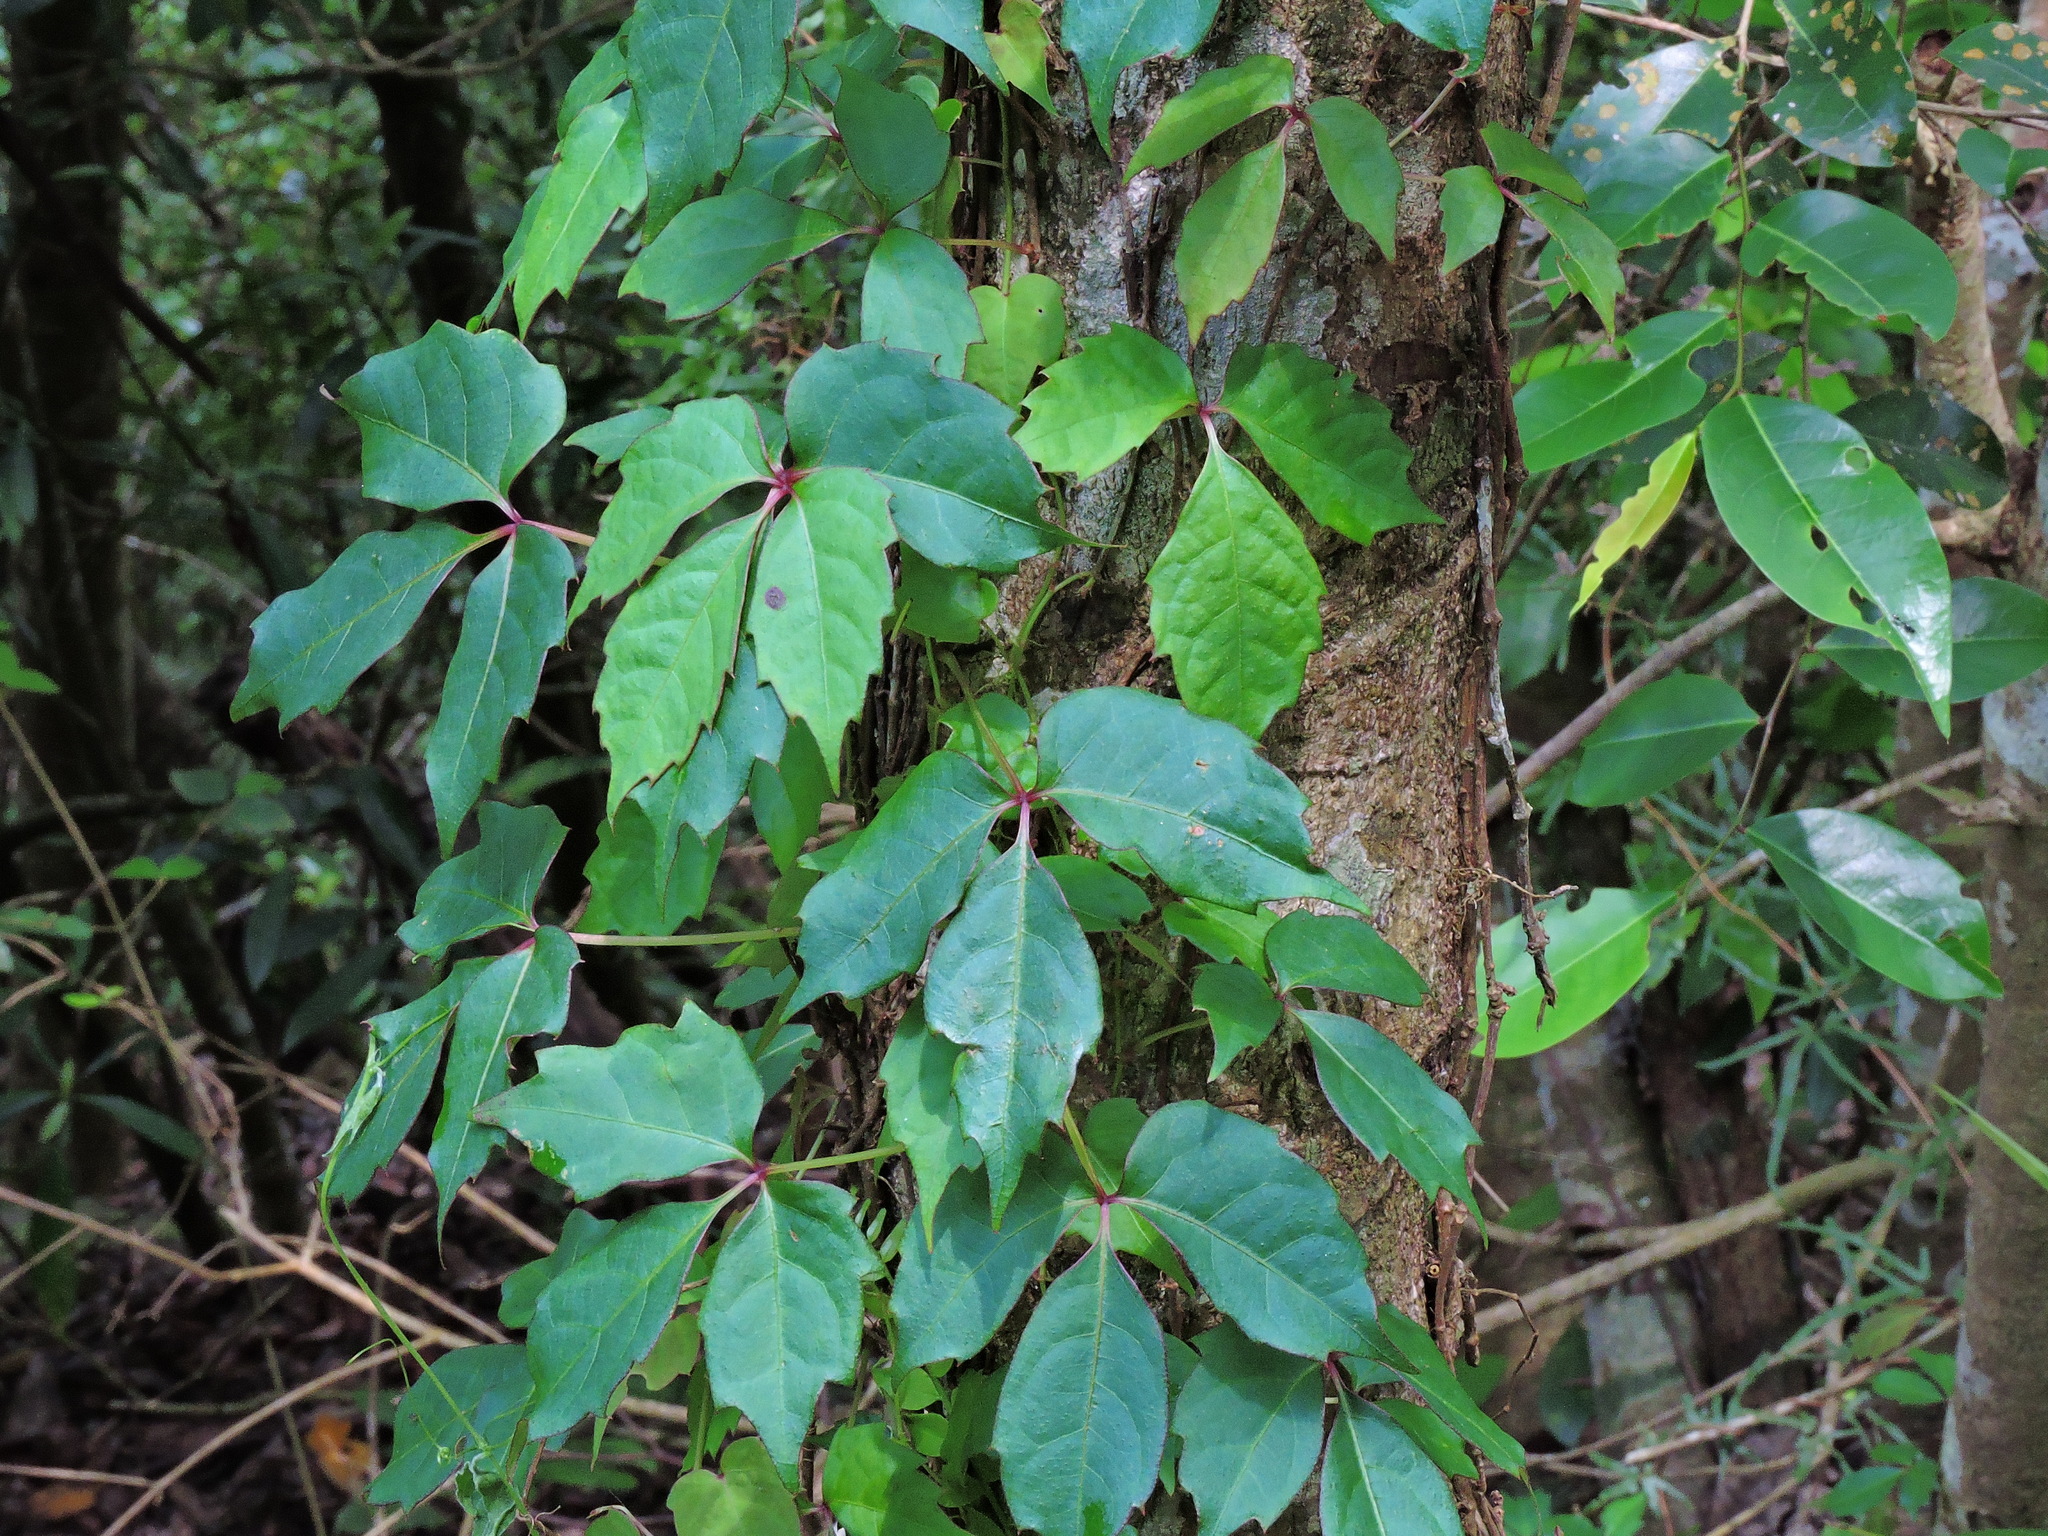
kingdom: Plantae
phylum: Tracheophyta
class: Magnoliopsida
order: Vitales
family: Vitaceae
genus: Parthenocissus
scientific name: Parthenocissus tricuspidata
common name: Boston ivy
